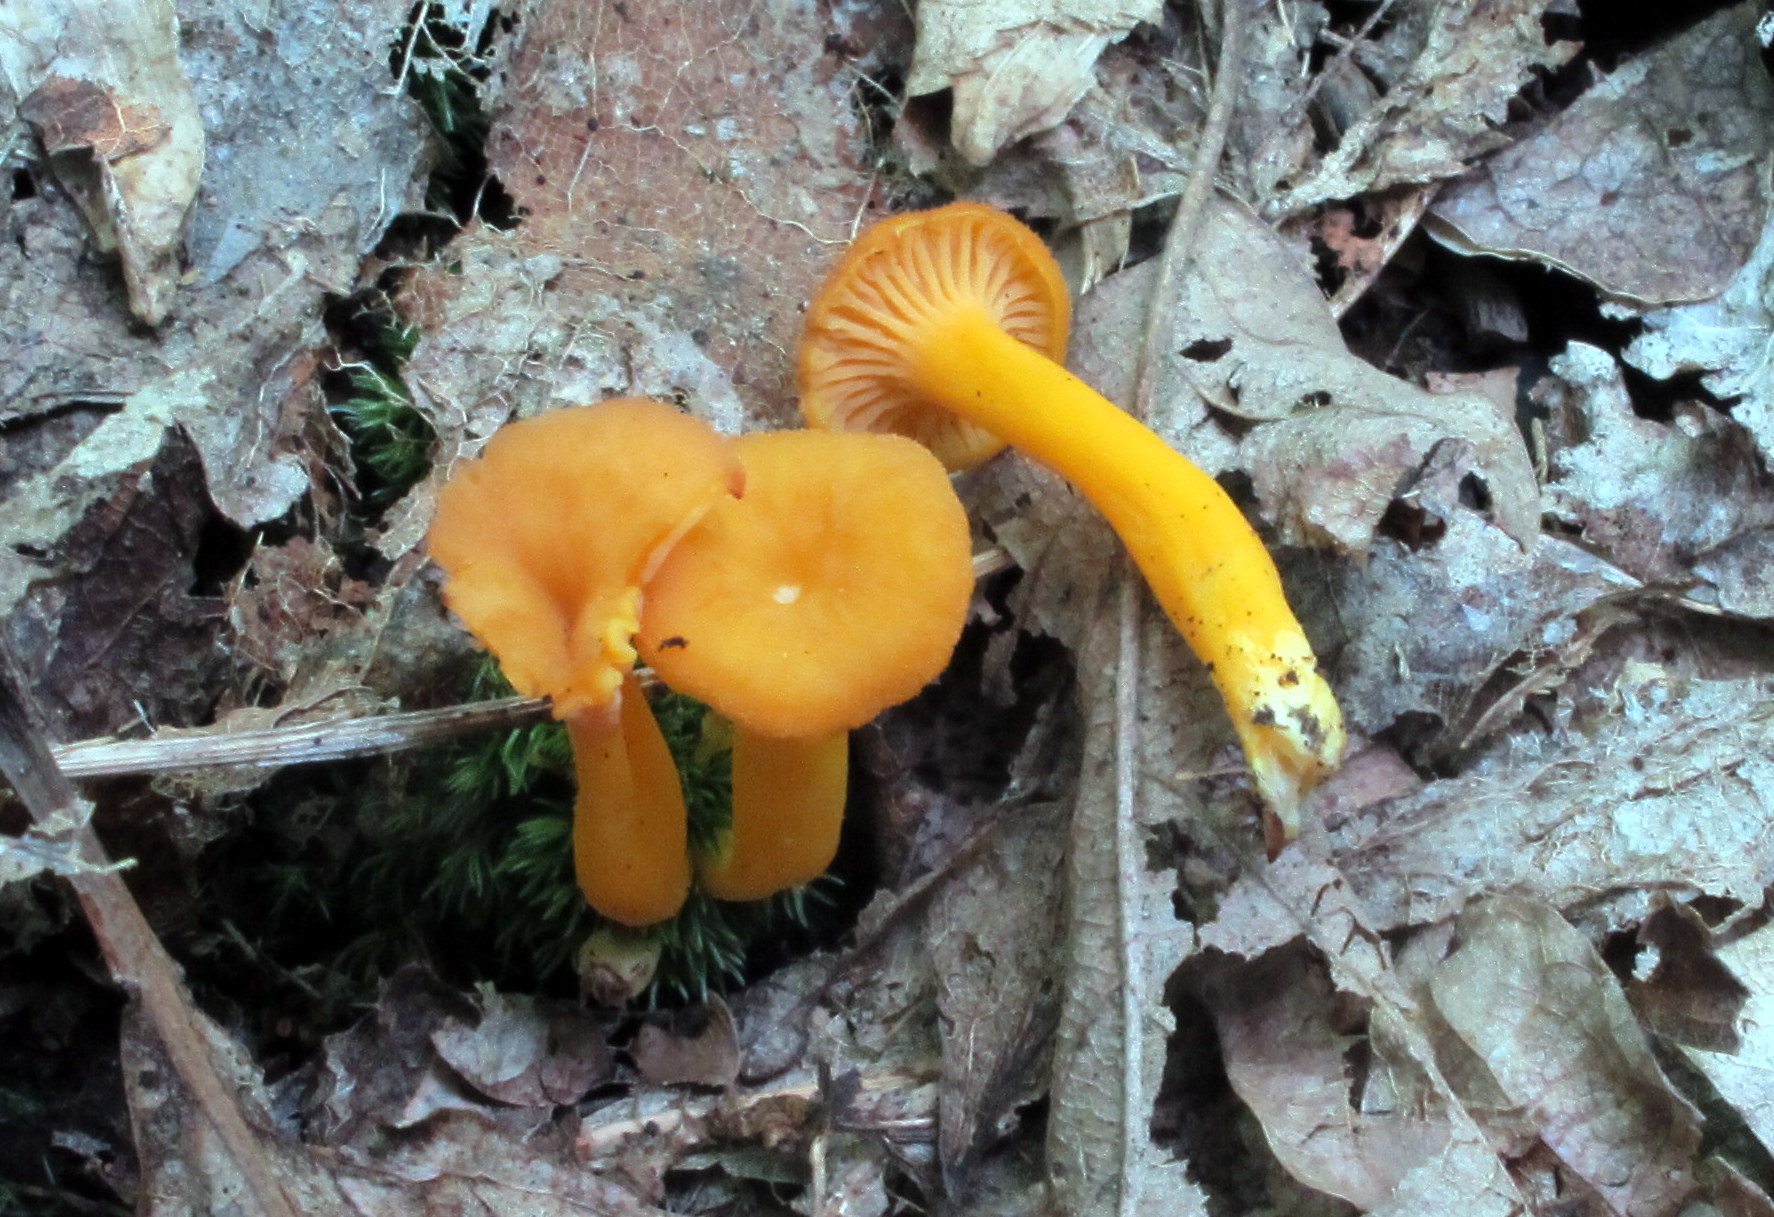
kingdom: Fungi
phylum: Basidiomycota
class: Agaricomycetes
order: Cantharellales
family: Hydnaceae
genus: Craterellus
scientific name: Craterellus ignicolor
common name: Flame chanterelle
